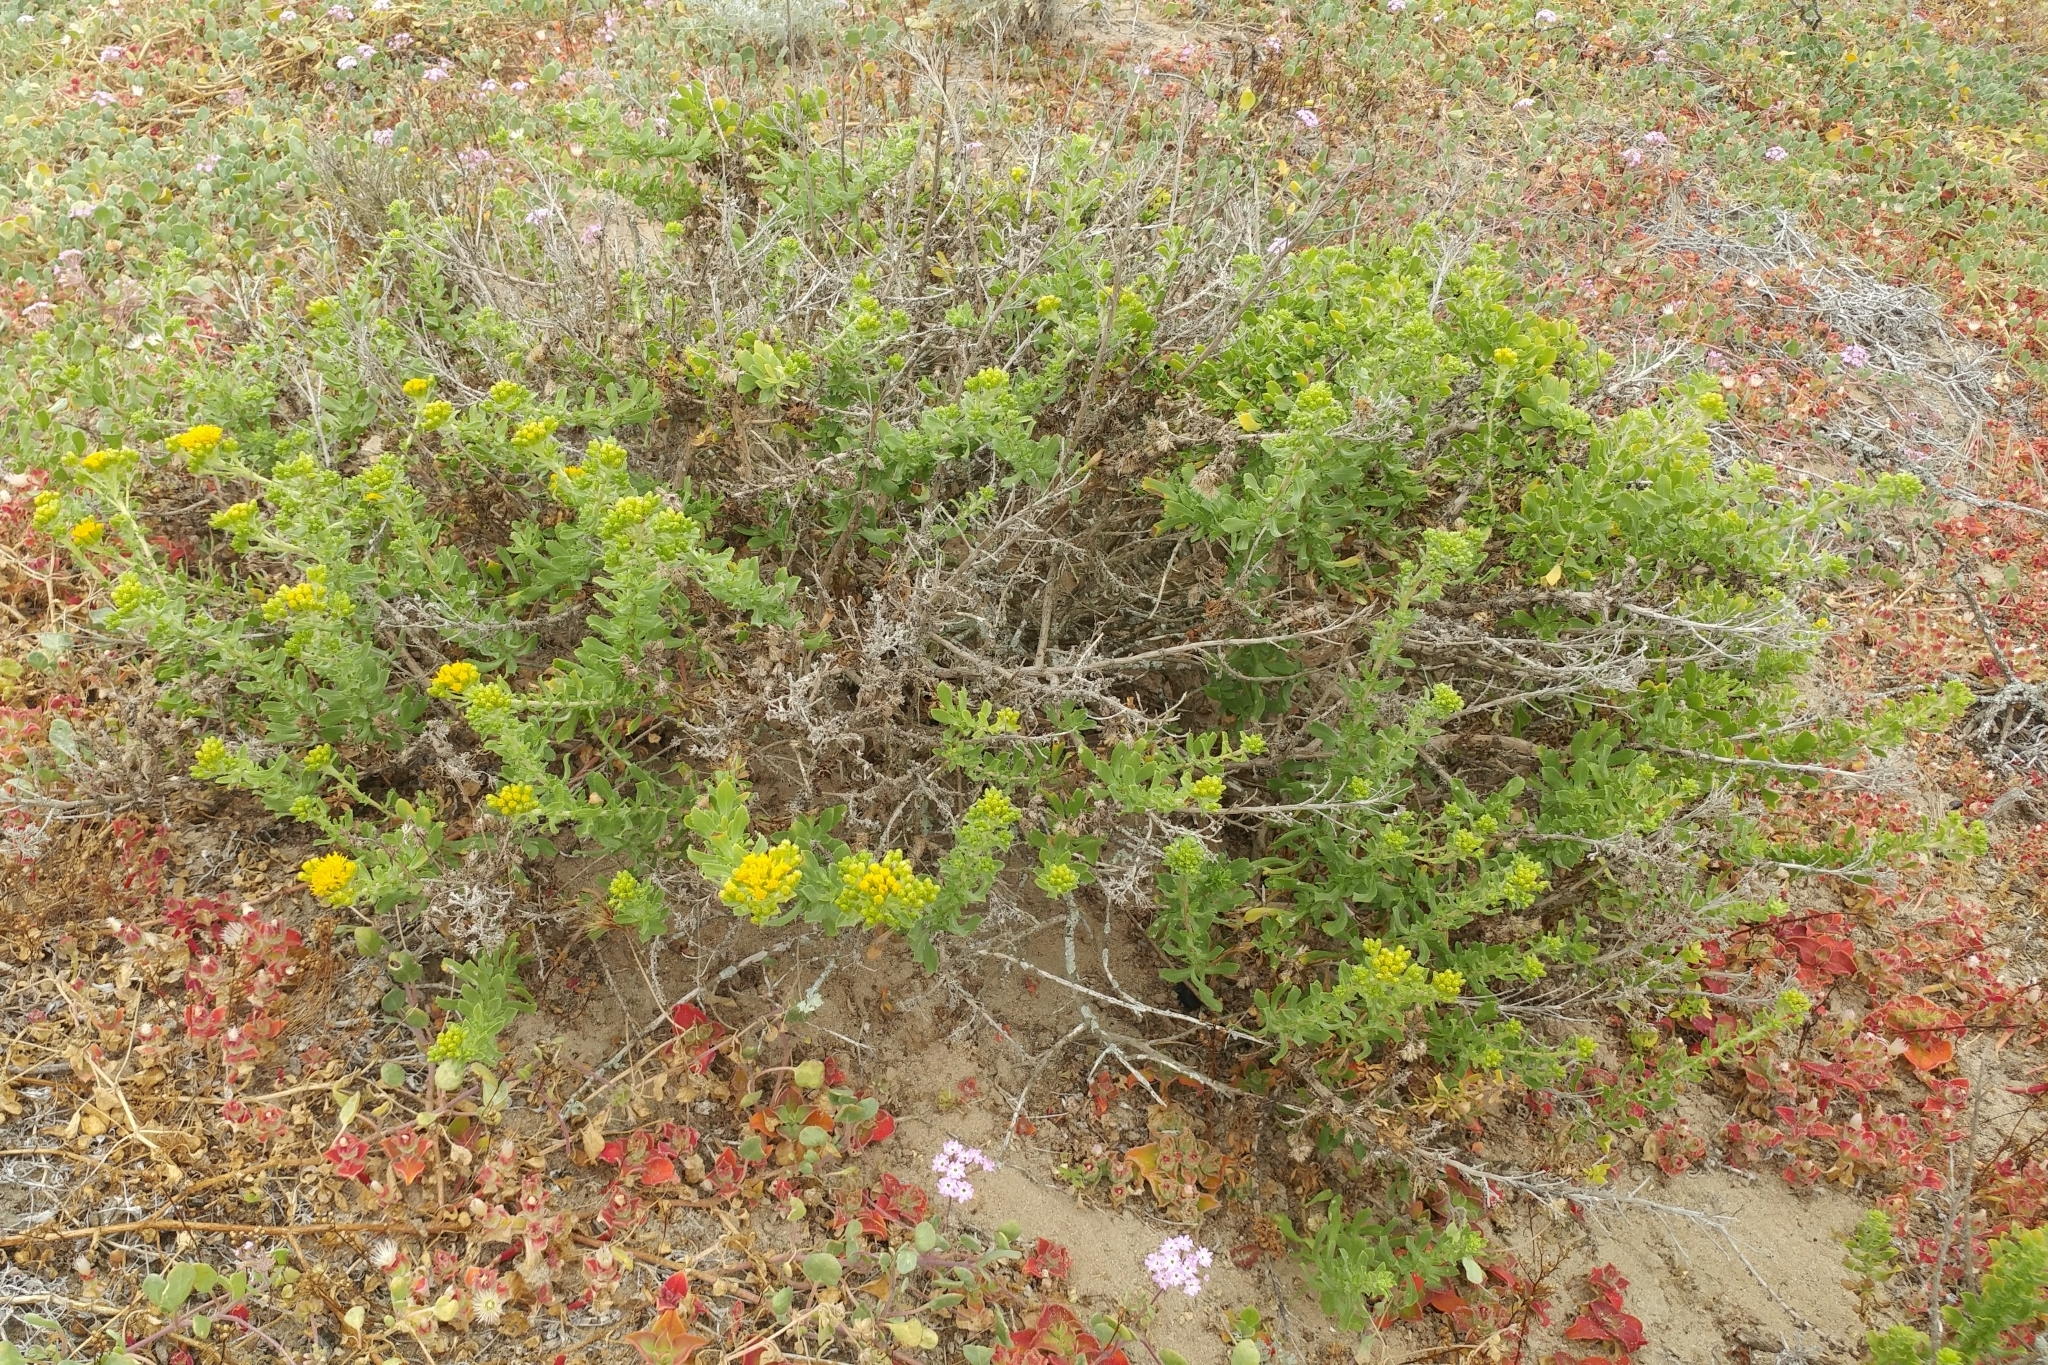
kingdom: Plantae
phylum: Tracheophyta
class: Magnoliopsida
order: Asterales
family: Asteraceae
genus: Isocoma
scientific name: Isocoma menziesii
